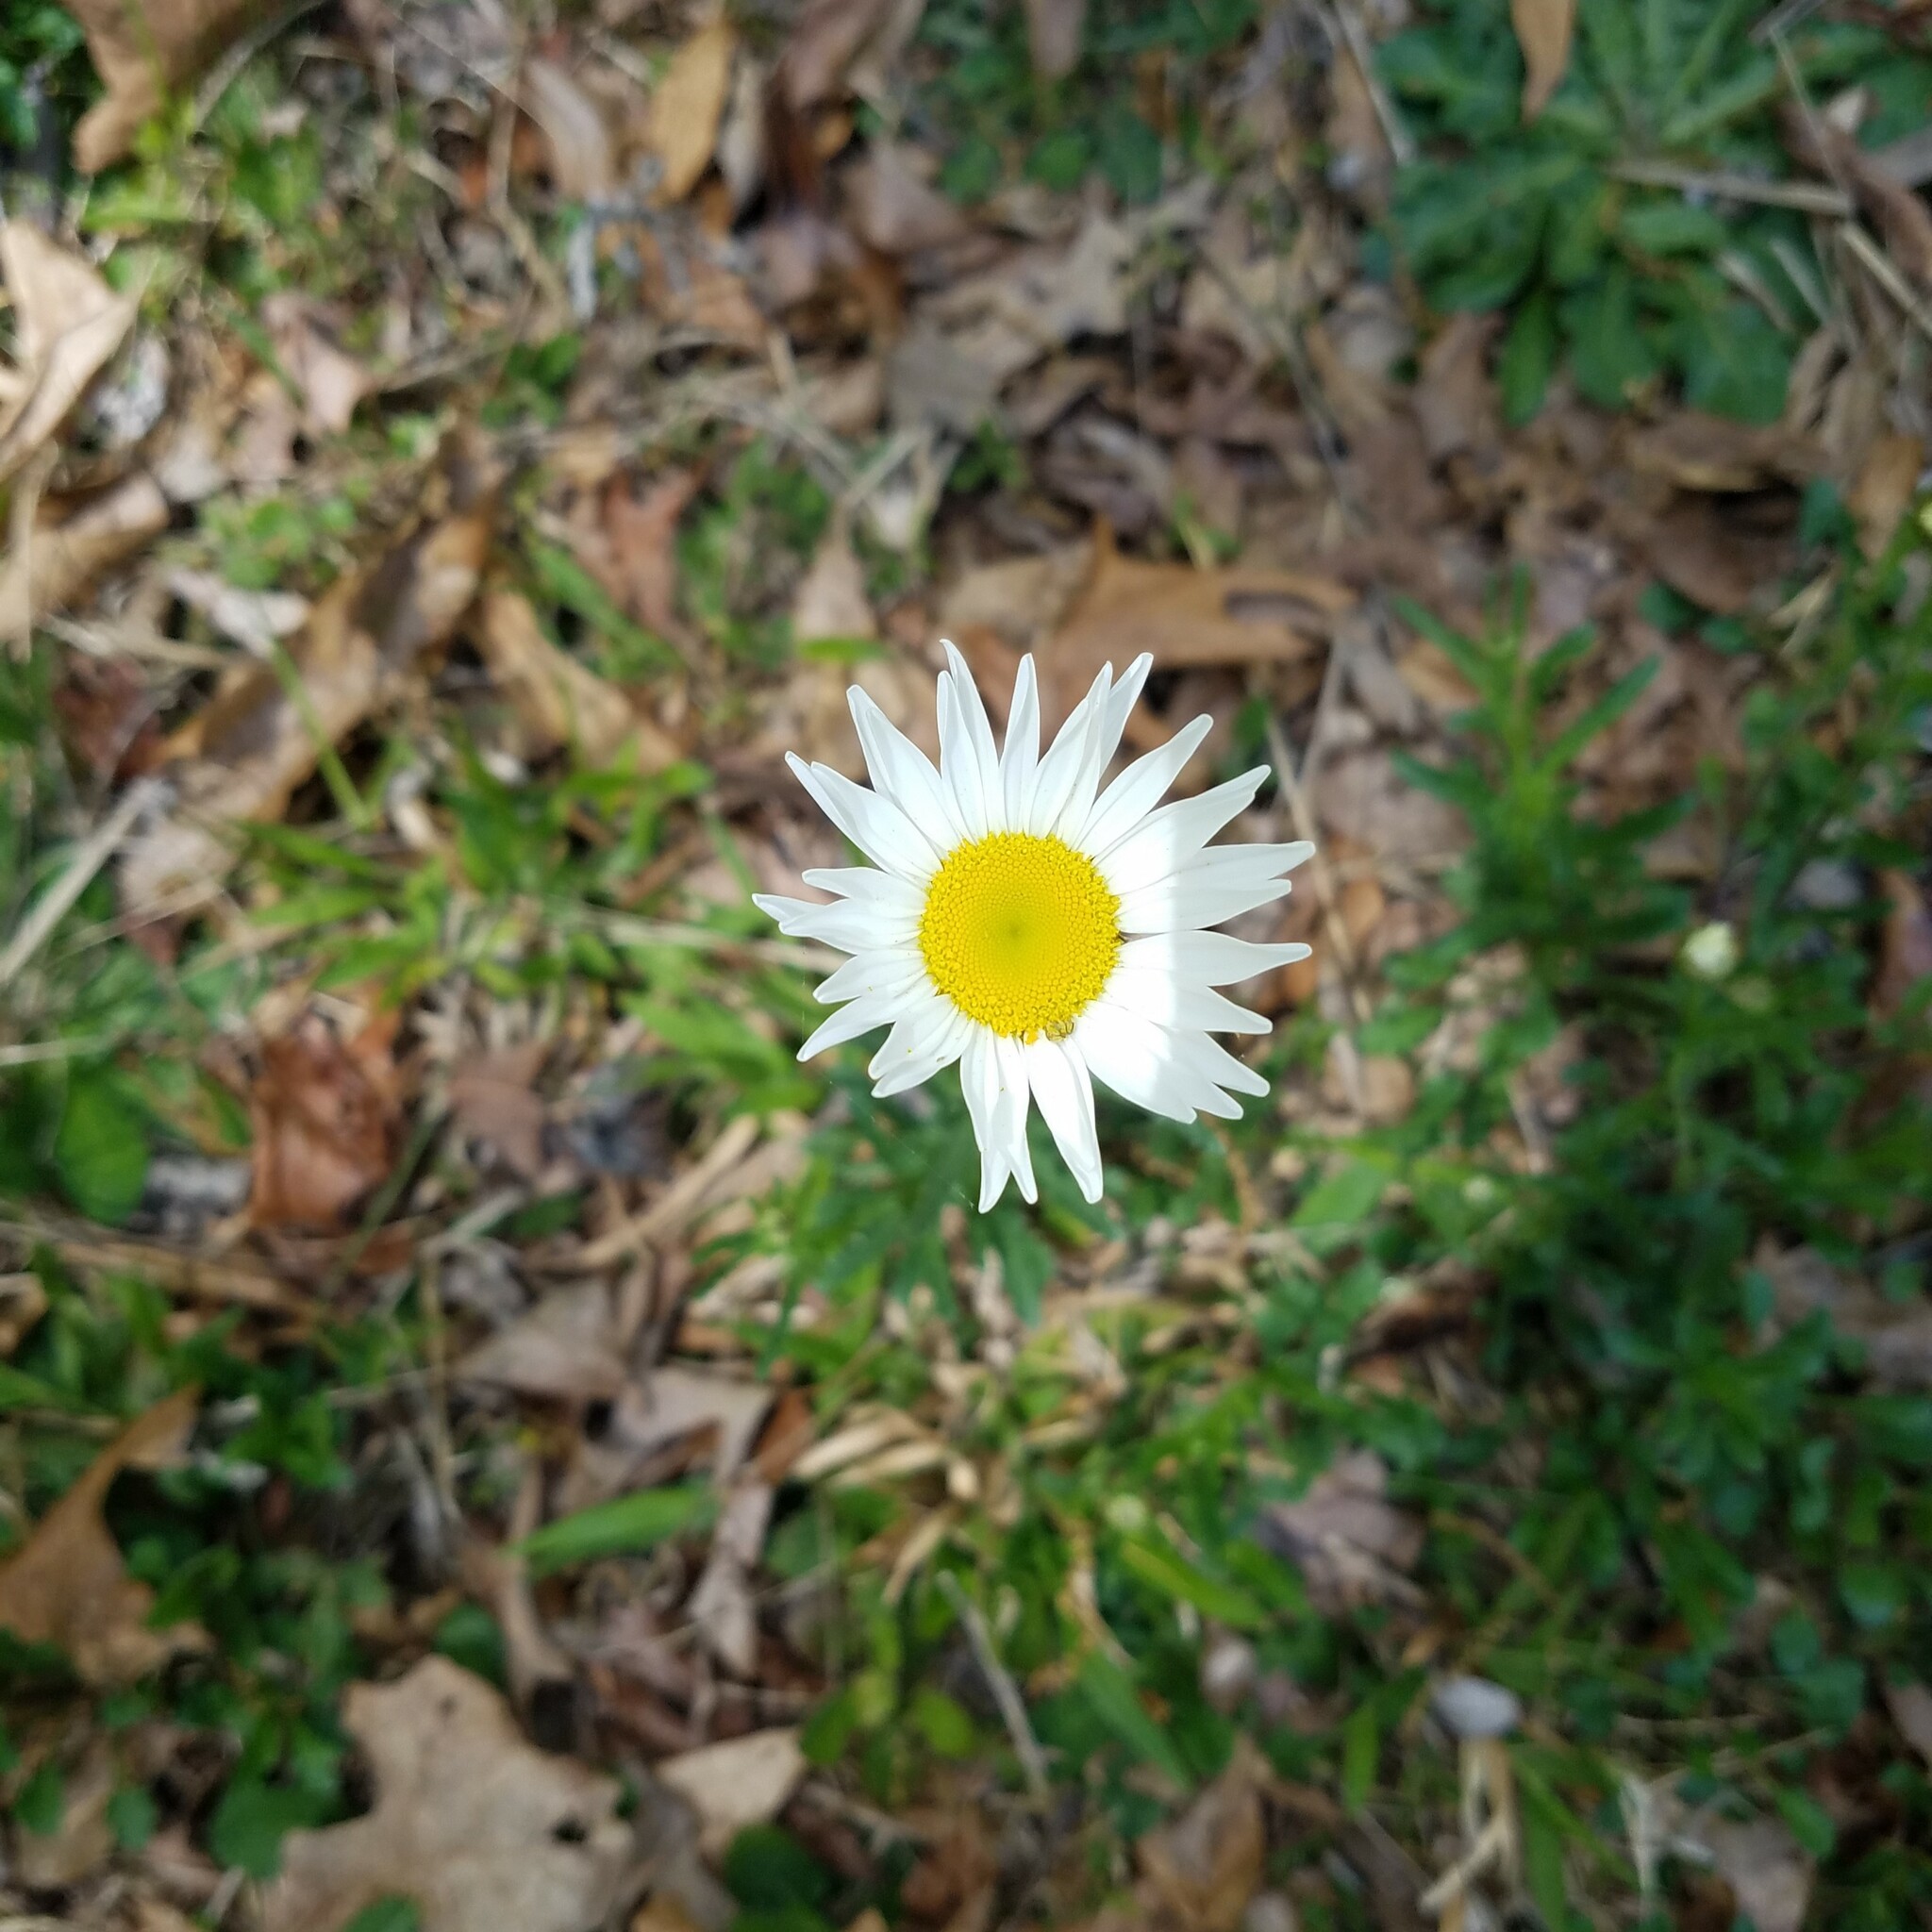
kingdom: Plantae
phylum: Tracheophyta
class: Magnoliopsida
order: Asterales
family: Asteraceae
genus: Leucanthemum
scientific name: Leucanthemum vulgare
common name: Oxeye daisy
